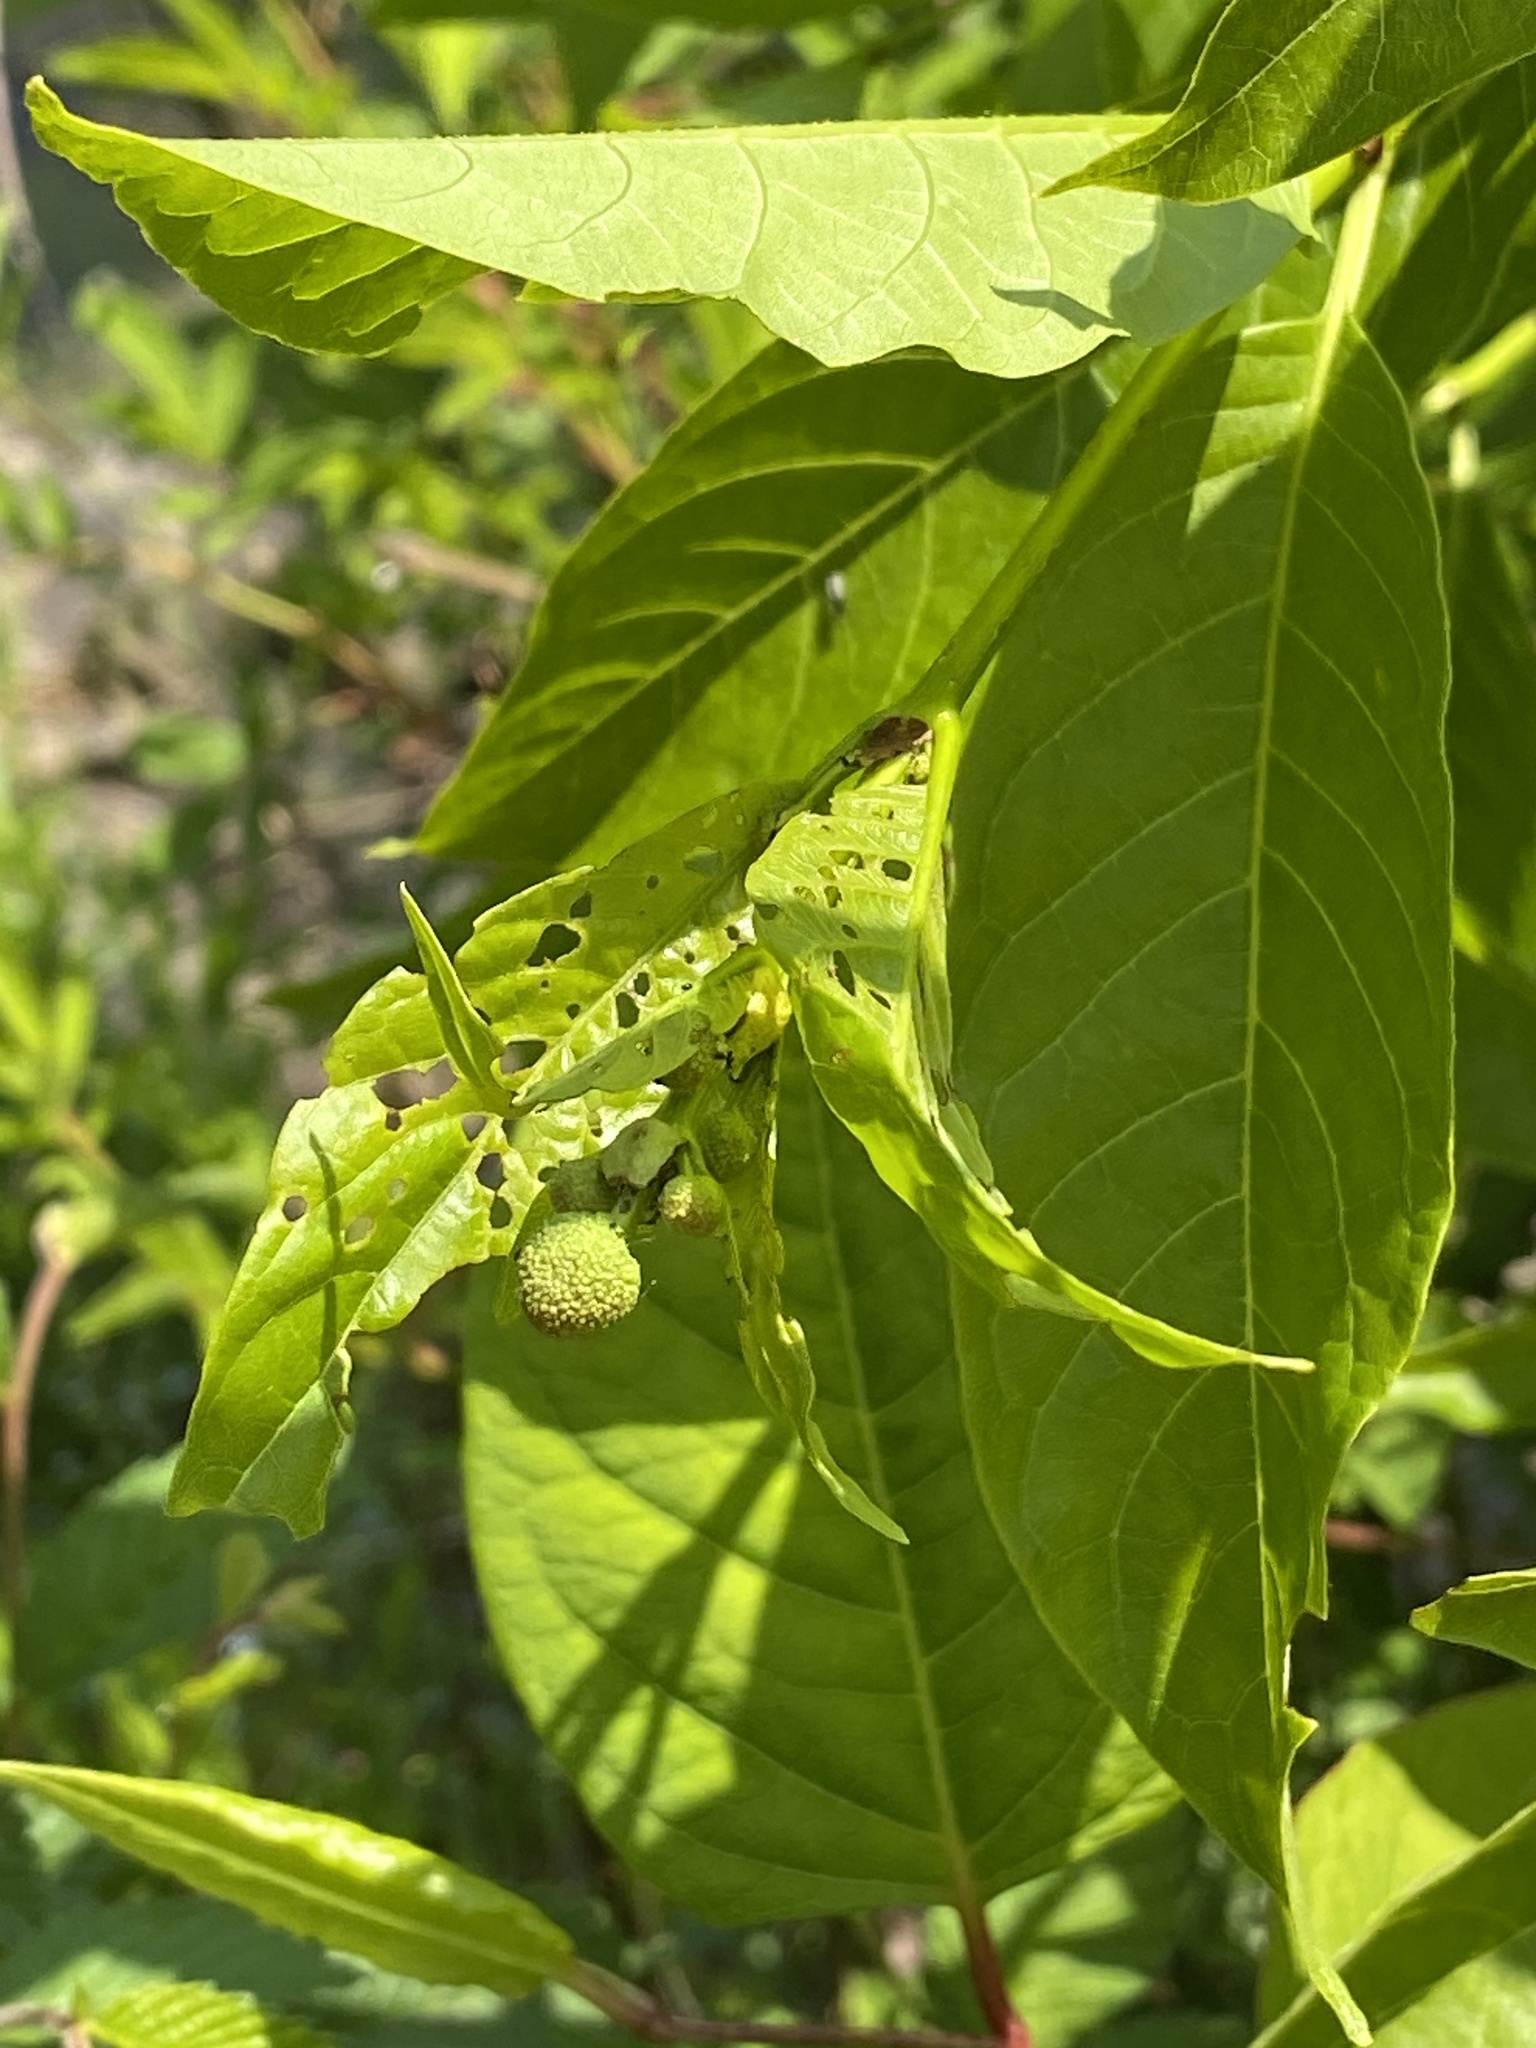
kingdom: Plantae
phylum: Tracheophyta
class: Magnoliopsida
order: Gentianales
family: Rubiaceae
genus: Cephalanthus
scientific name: Cephalanthus occidentalis
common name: Button-willow
